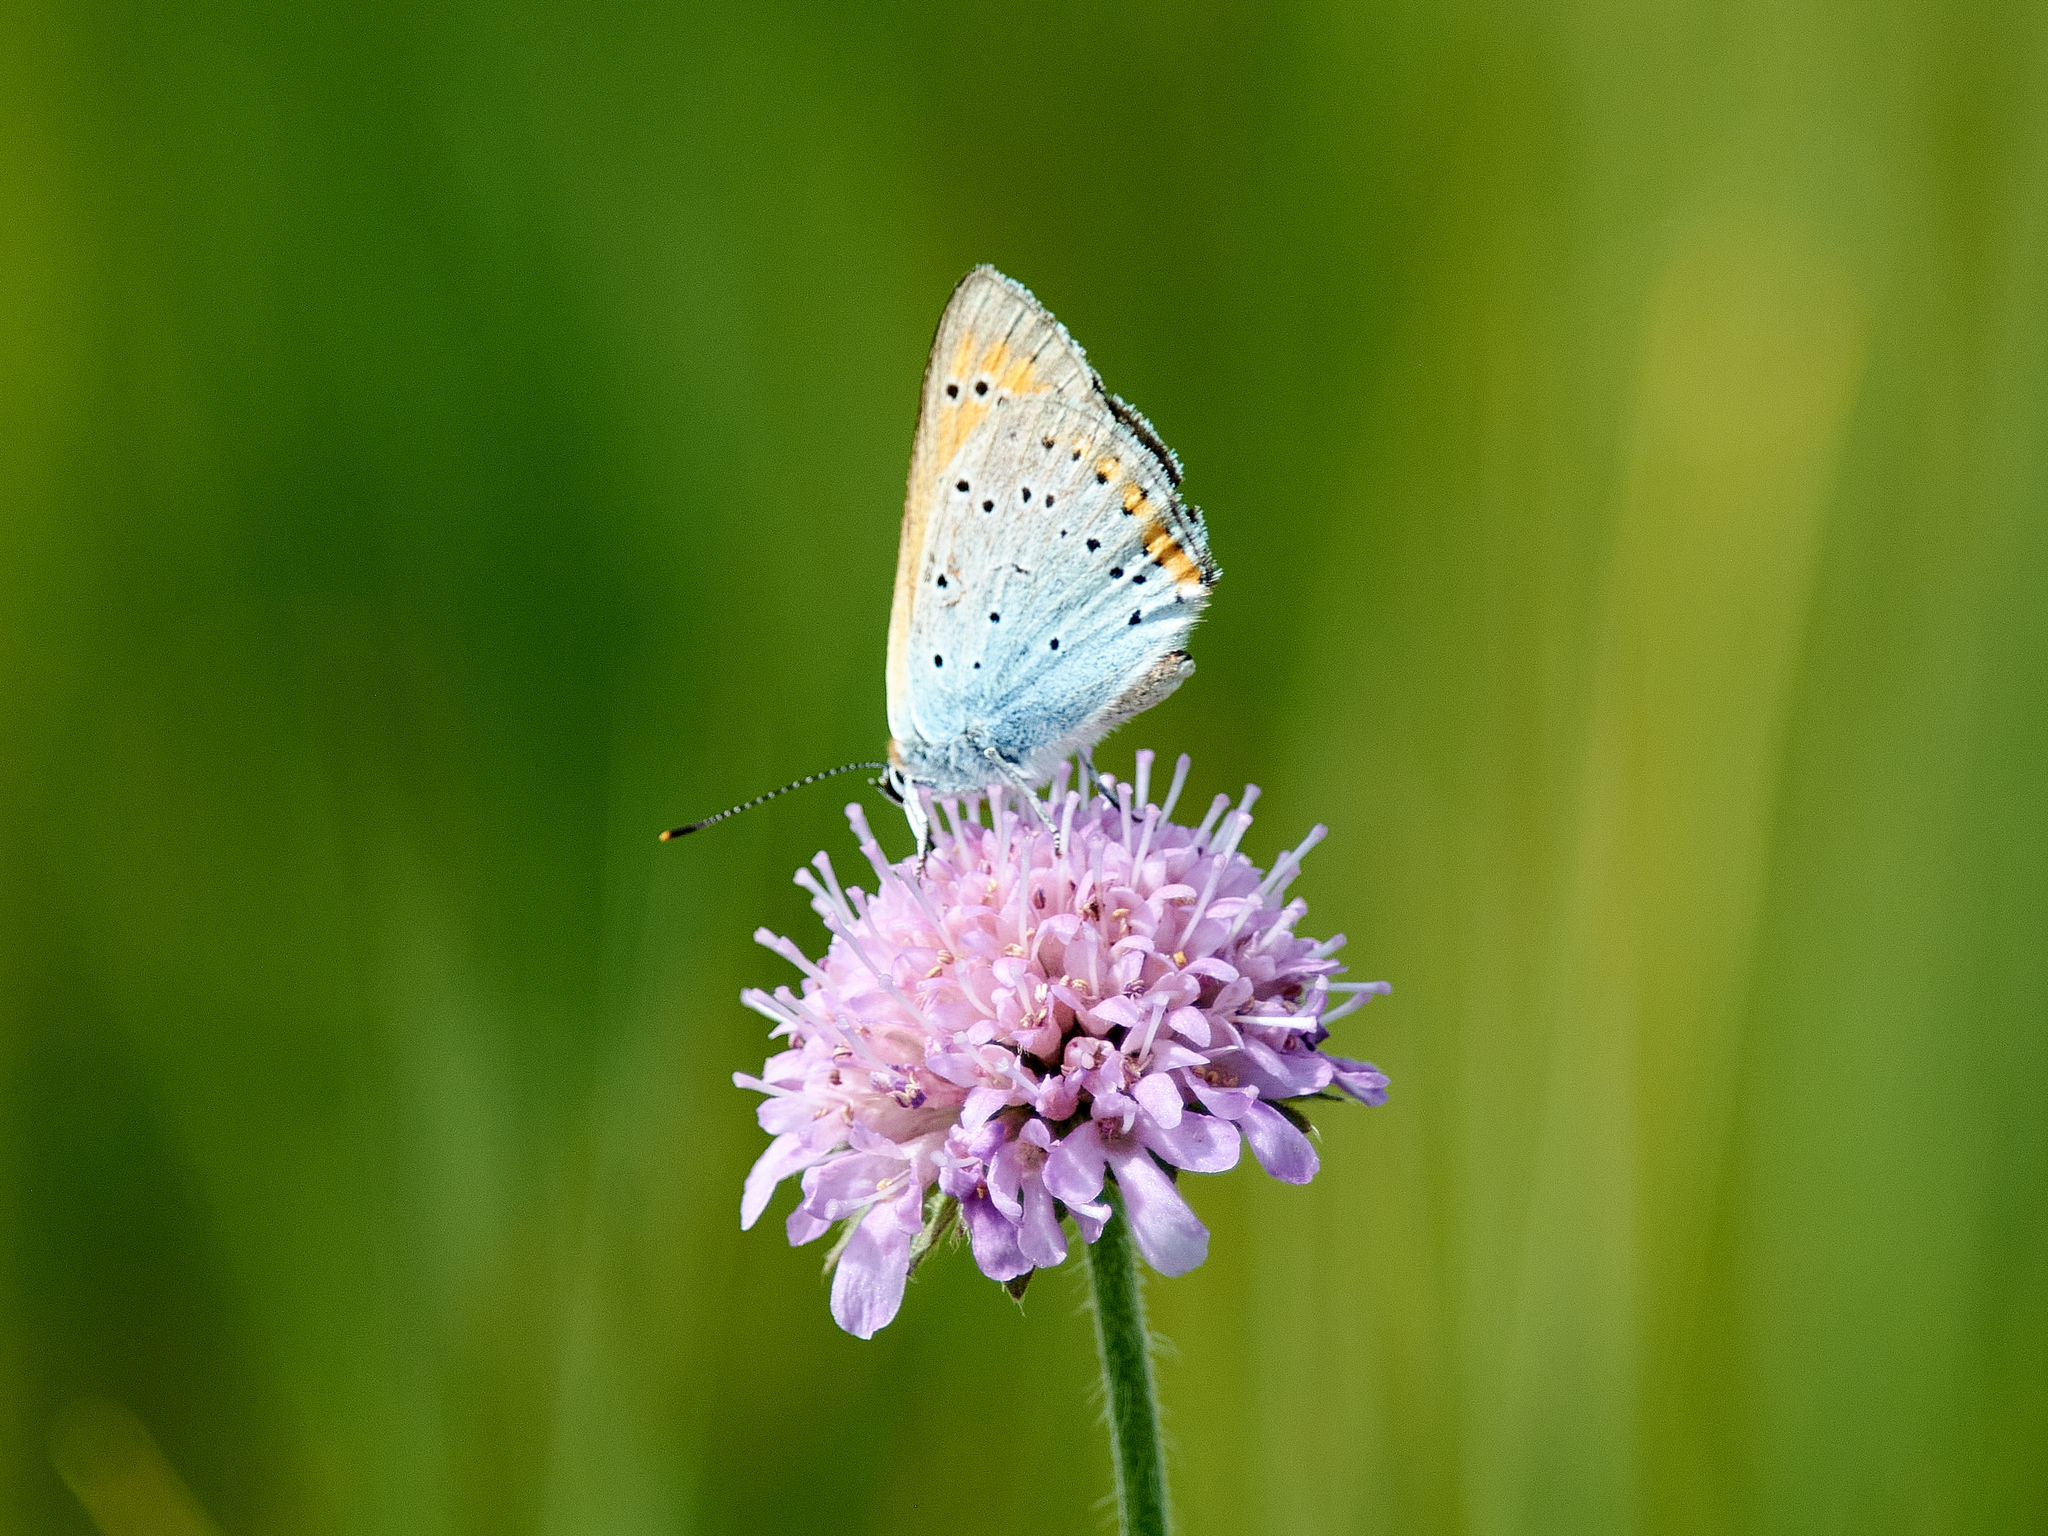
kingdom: Animalia
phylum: Arthropoda
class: Insecta
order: Lepidoptera
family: Lycaenidae
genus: Lycaena
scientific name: Lycaena dispar
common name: Large copper
